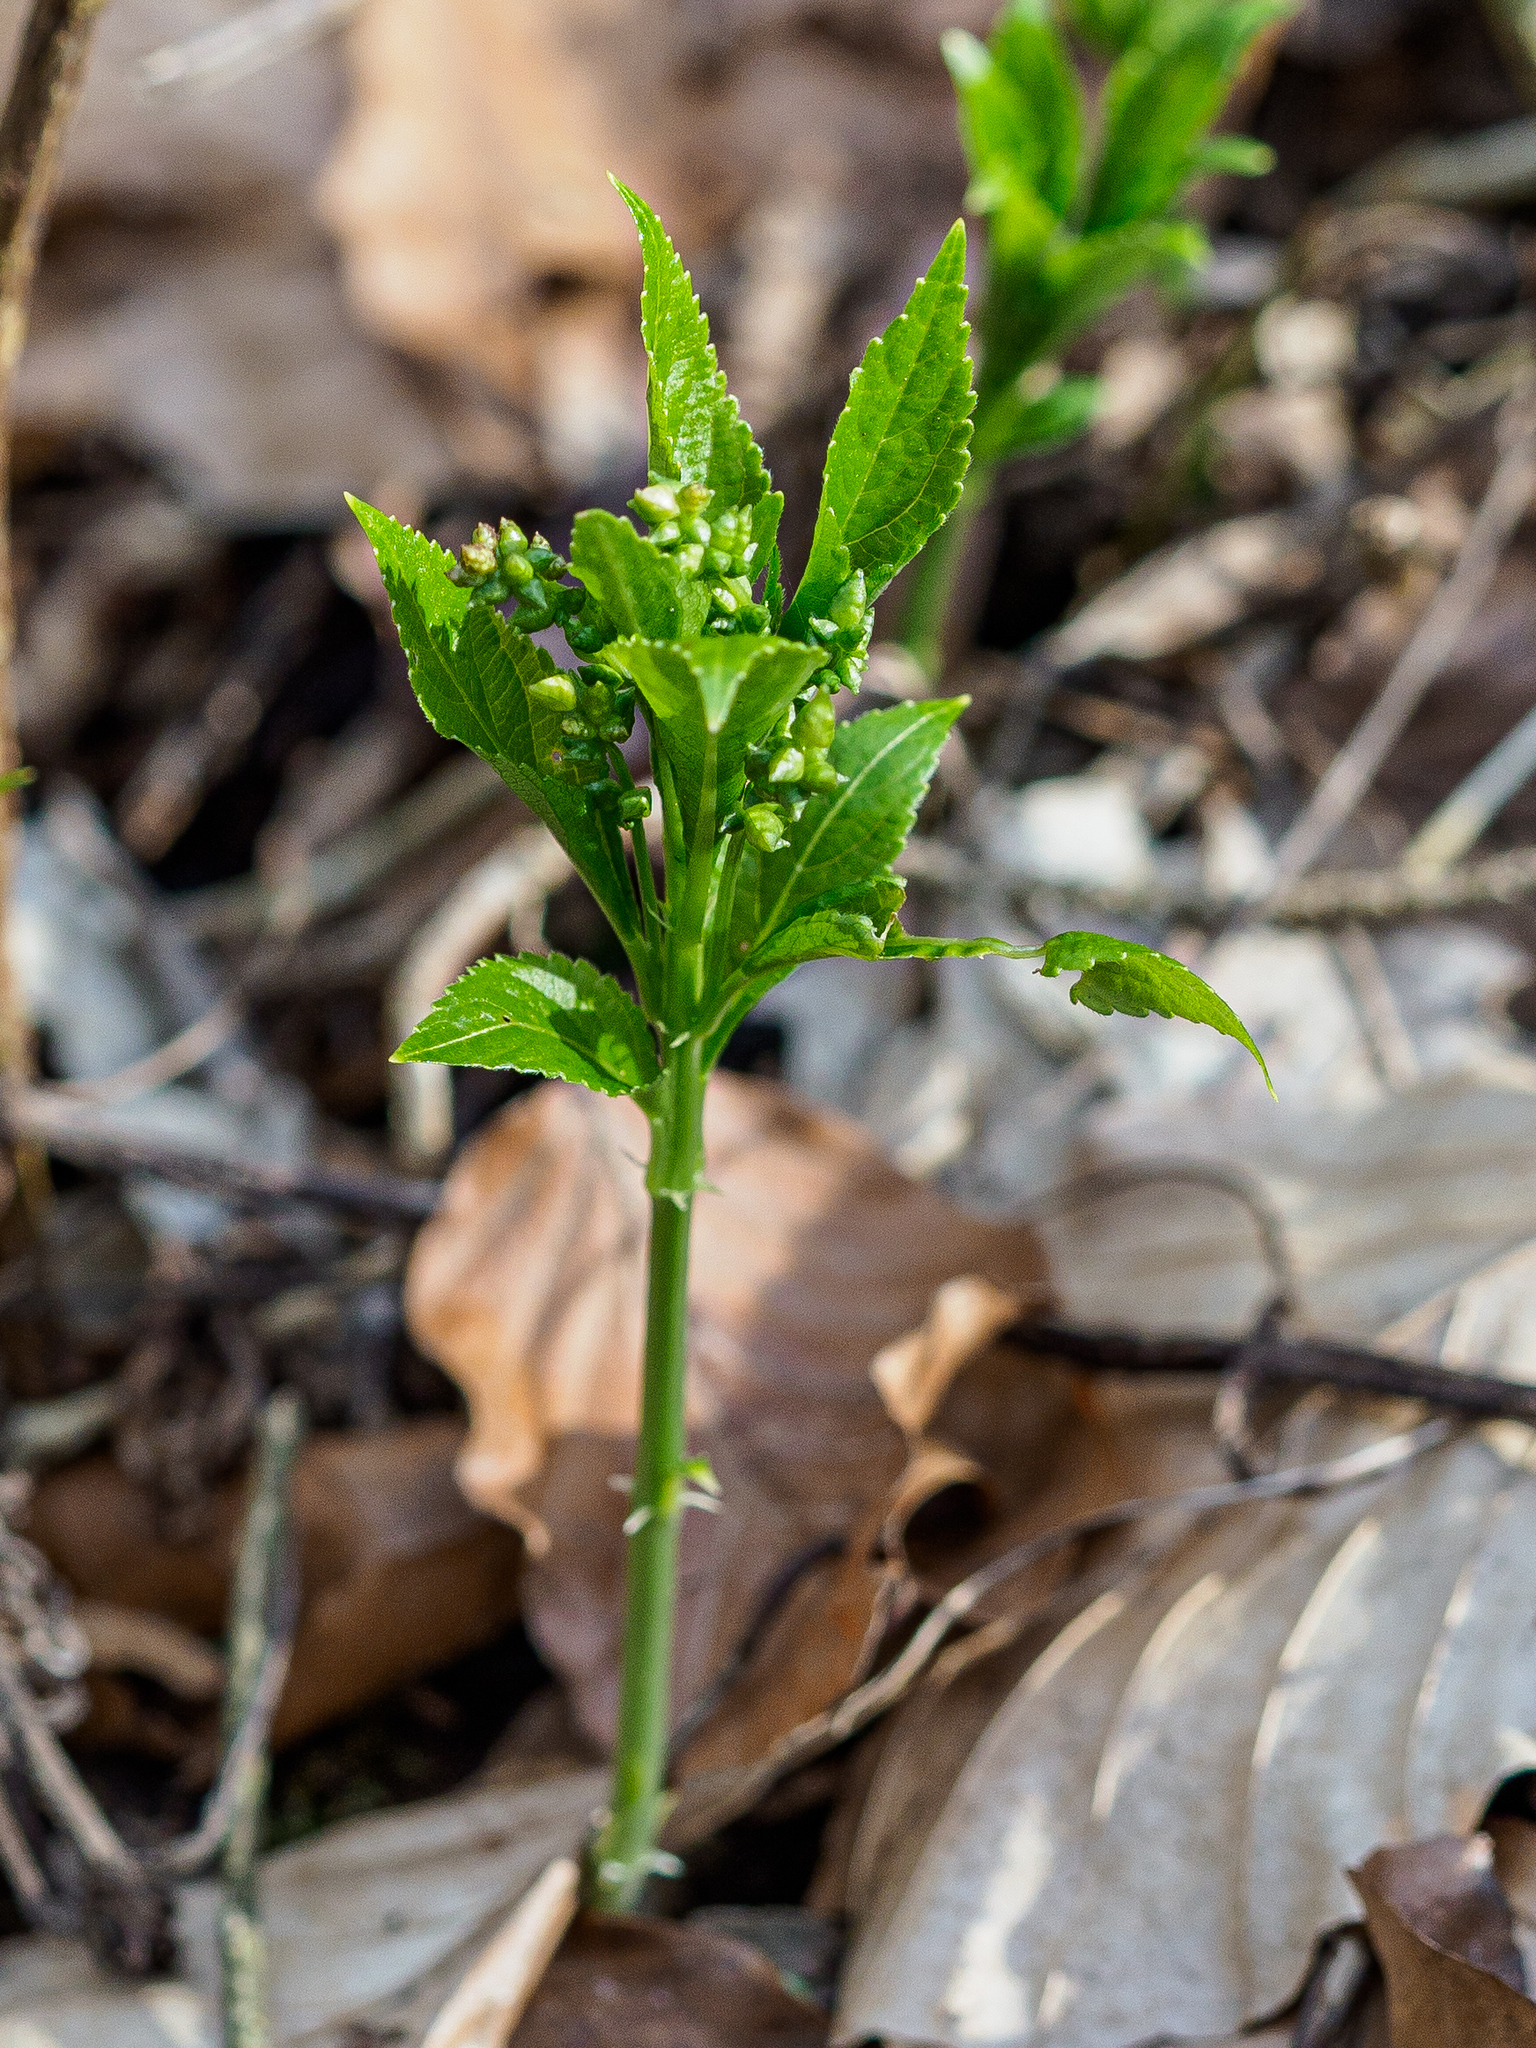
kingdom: Plantae
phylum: Tracheophyta
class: Magnoliopsida
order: Malpighiales
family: Euphorbiaceae
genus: Mercurialis
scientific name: Mercurialis perennis
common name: Dog mercury
